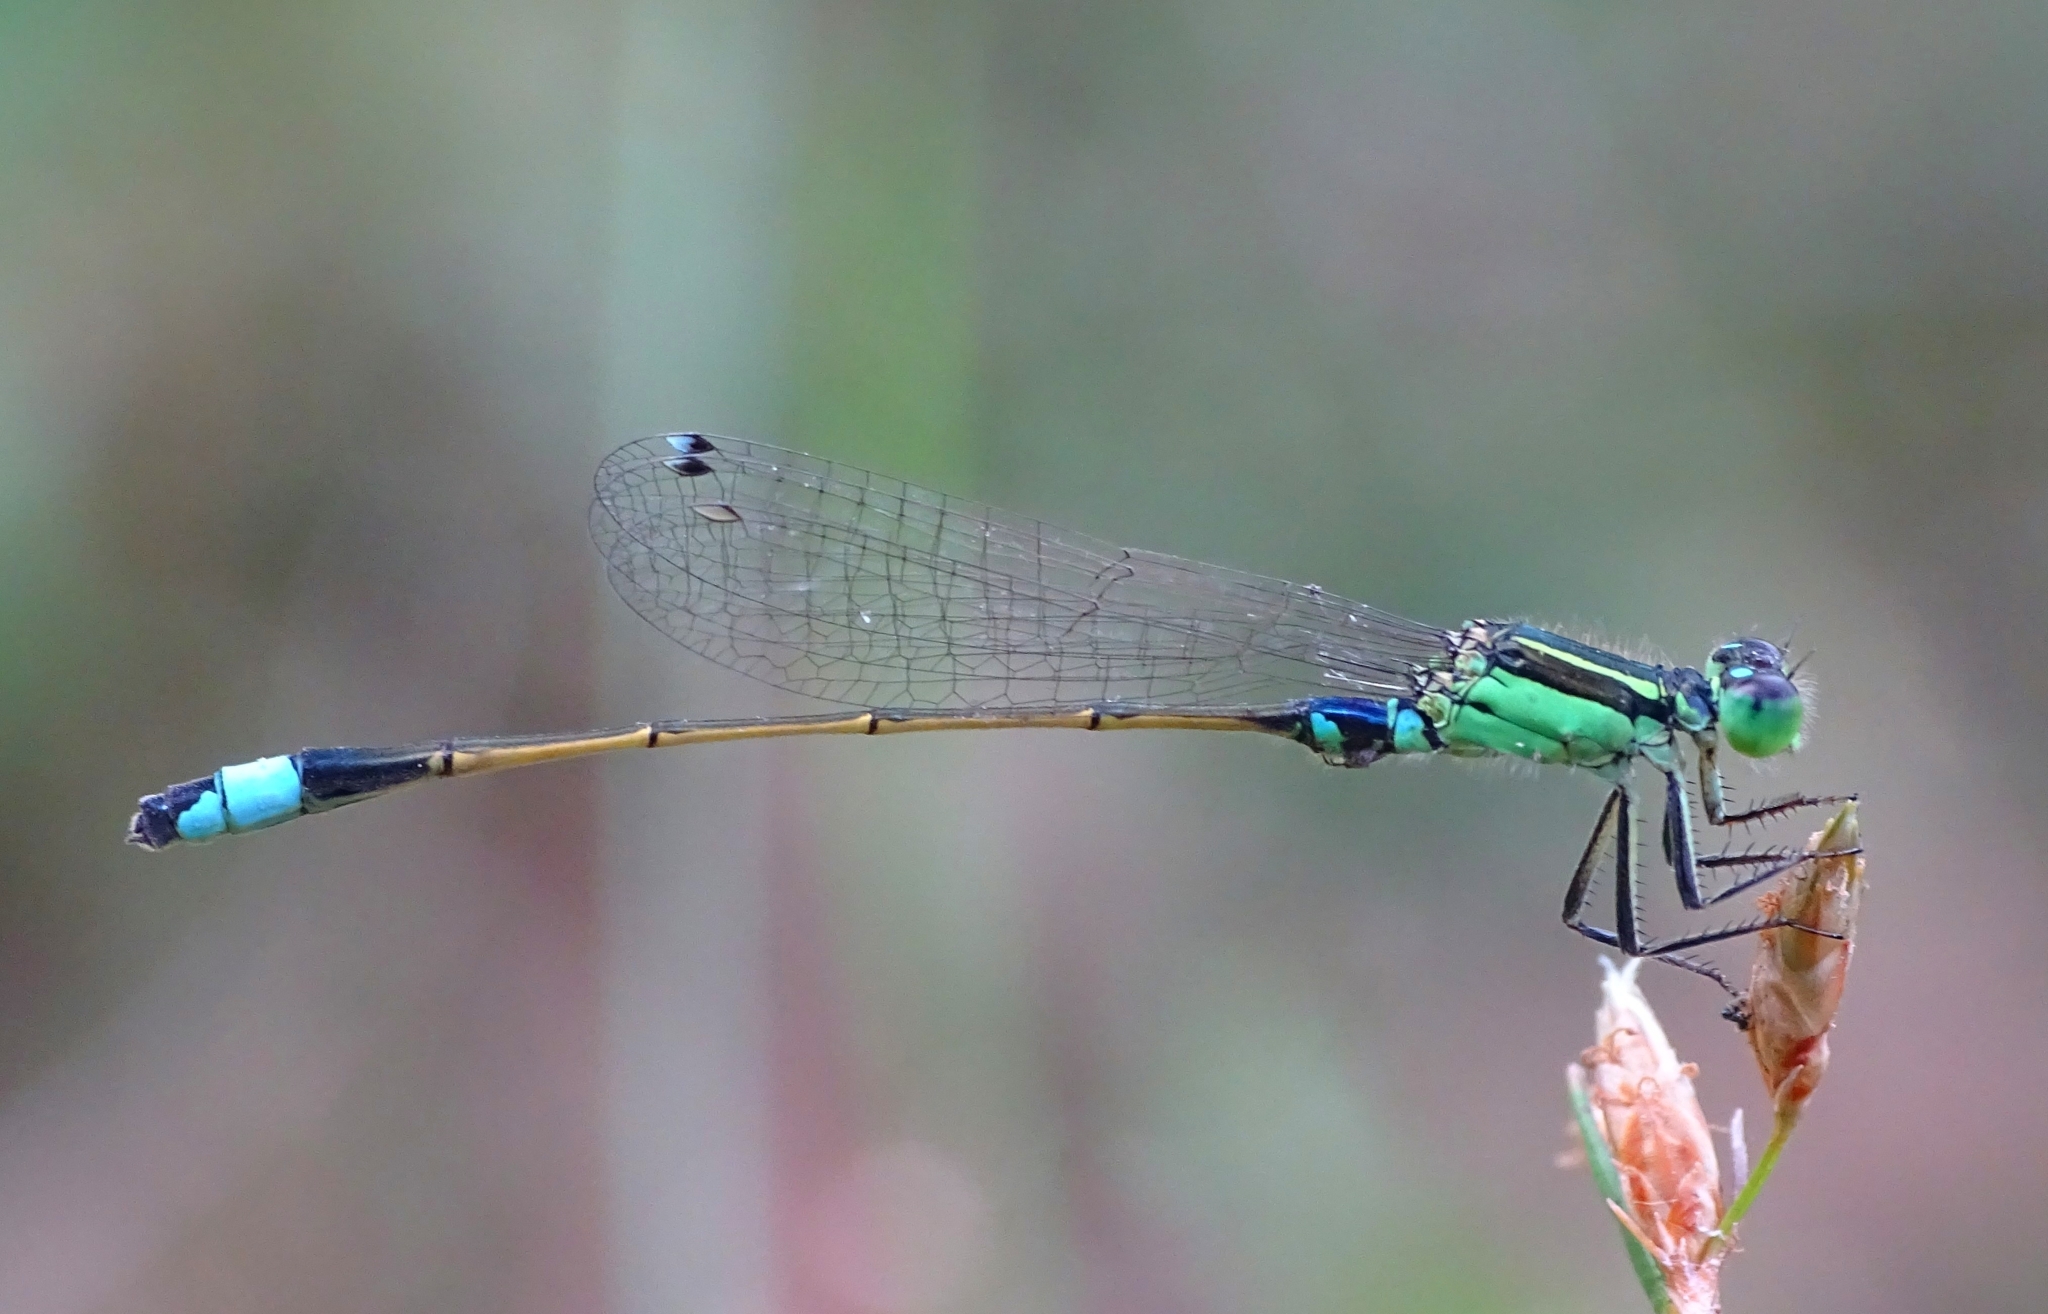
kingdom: Animalia
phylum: Arthropoda
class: Insecta
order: Odonata
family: Coenagrionidae
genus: Ischnura
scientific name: Ischnura senegalensis
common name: Tropical bluetail
